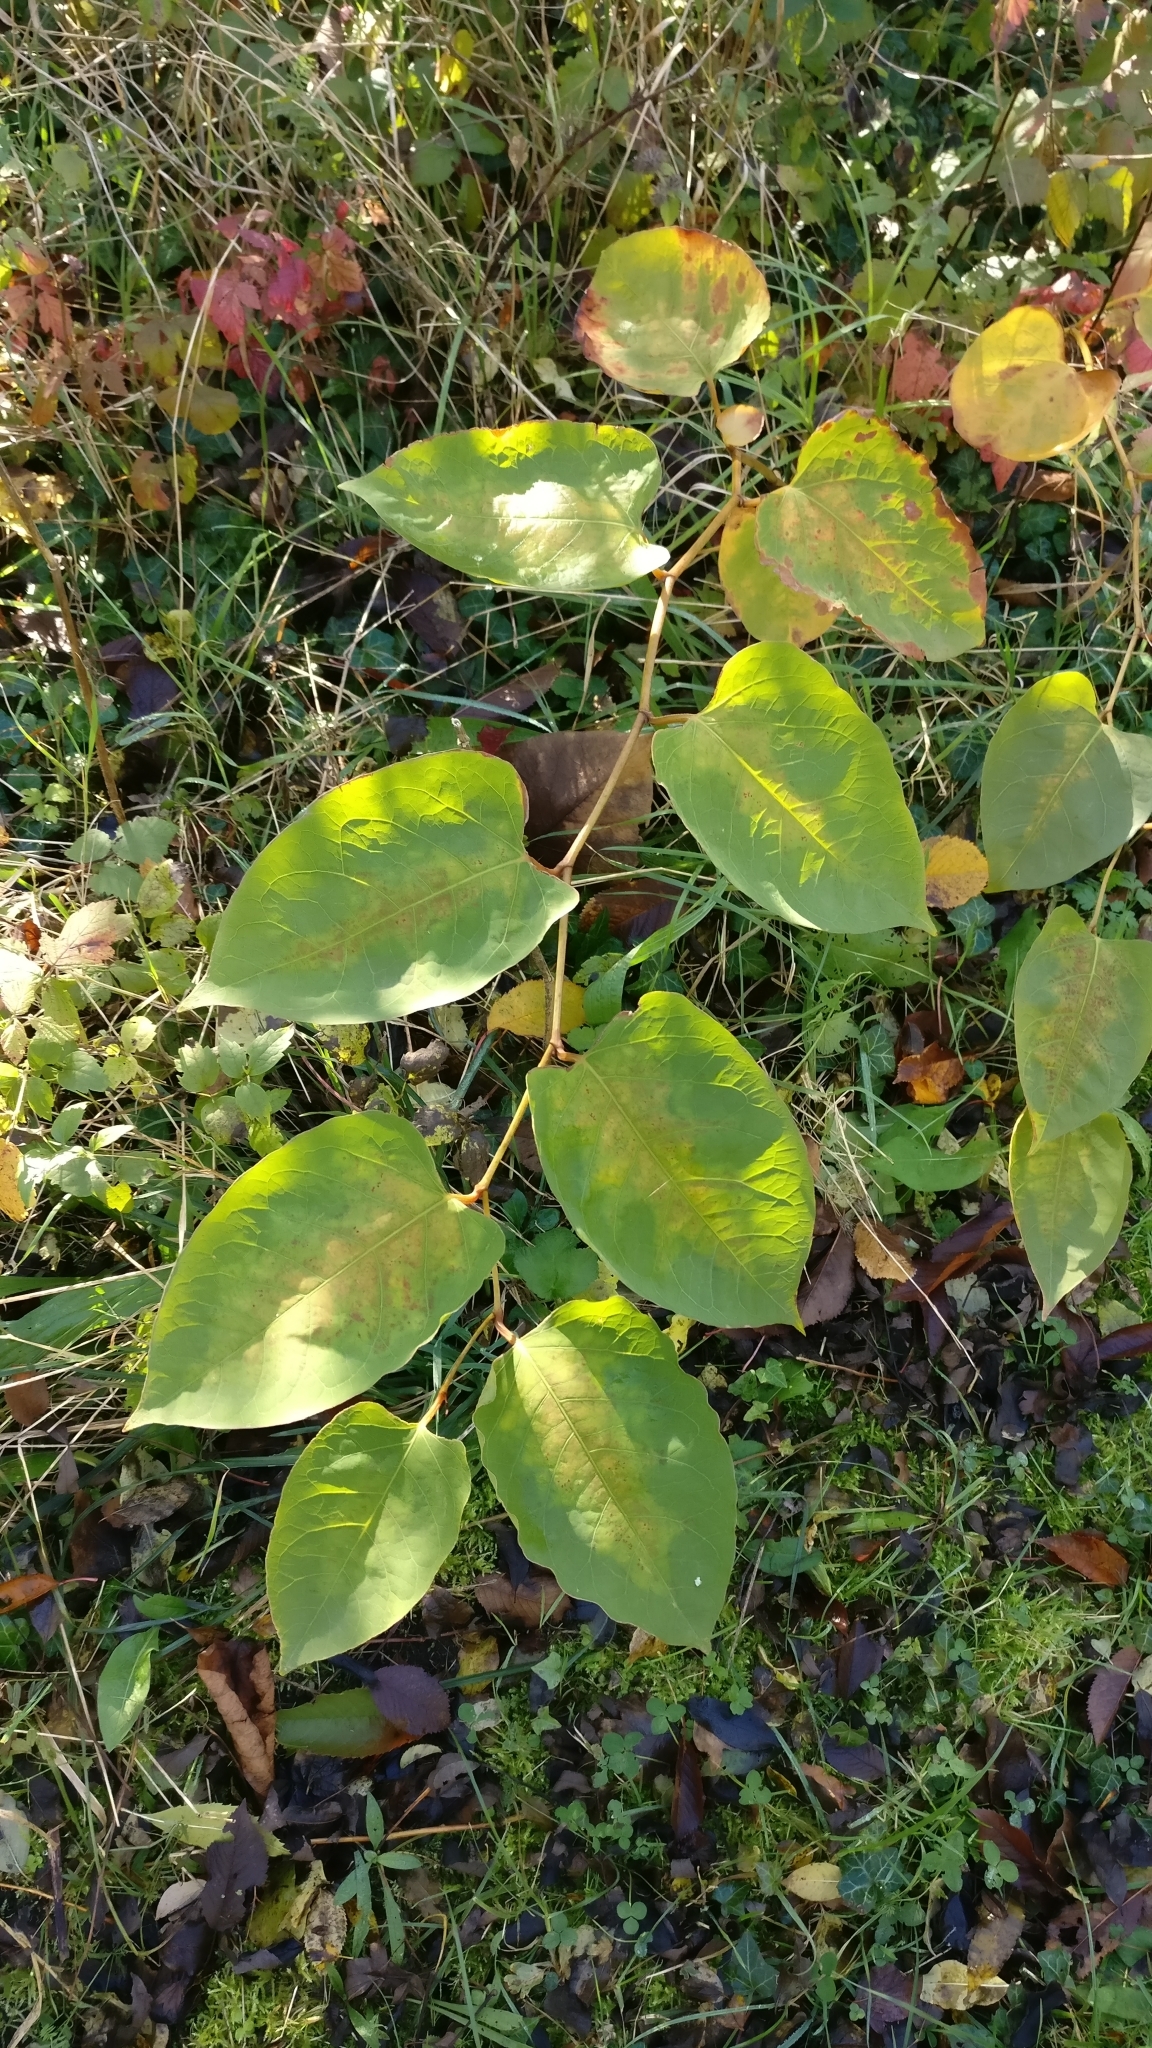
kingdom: Plantae
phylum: Tracheophyta
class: Magnoliopsida
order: Caryophyllales
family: Polygonaceae
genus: Reynoutria
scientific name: Reynoutria japonica
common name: Japanese knotweed
